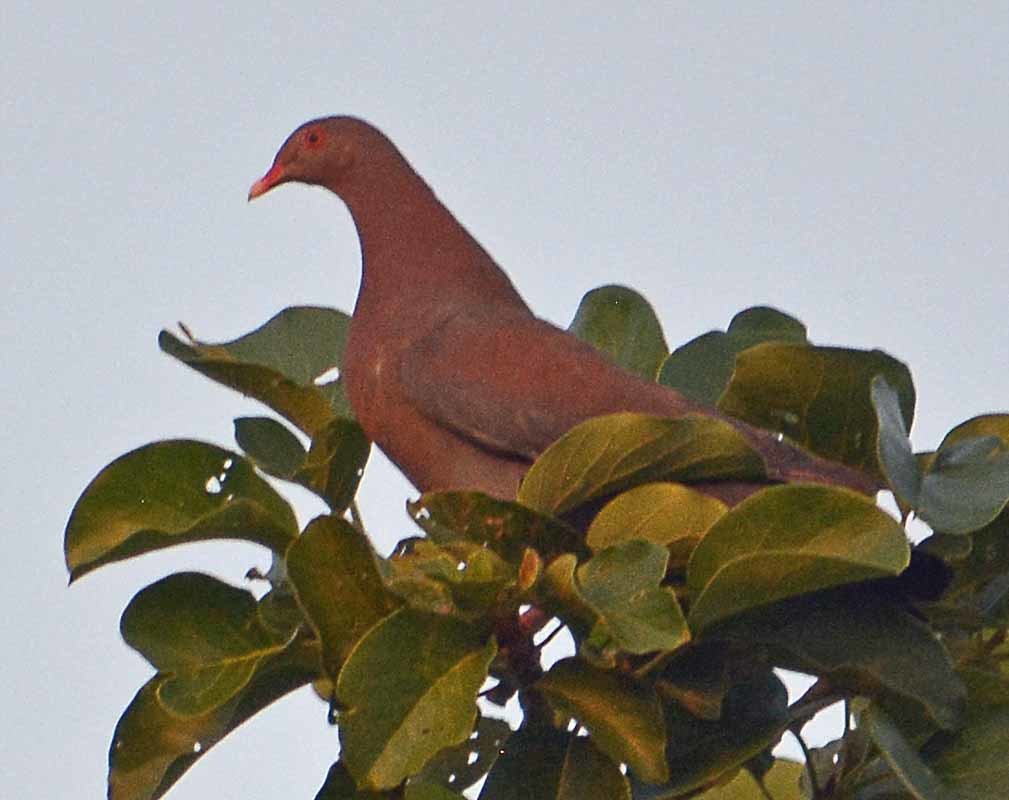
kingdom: Animalia
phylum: Chordata
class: Aves
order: Columbiformes
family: Columbidae
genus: Patagioenas
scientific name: Patagioenas flavirostris
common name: Red-billed pigeon
